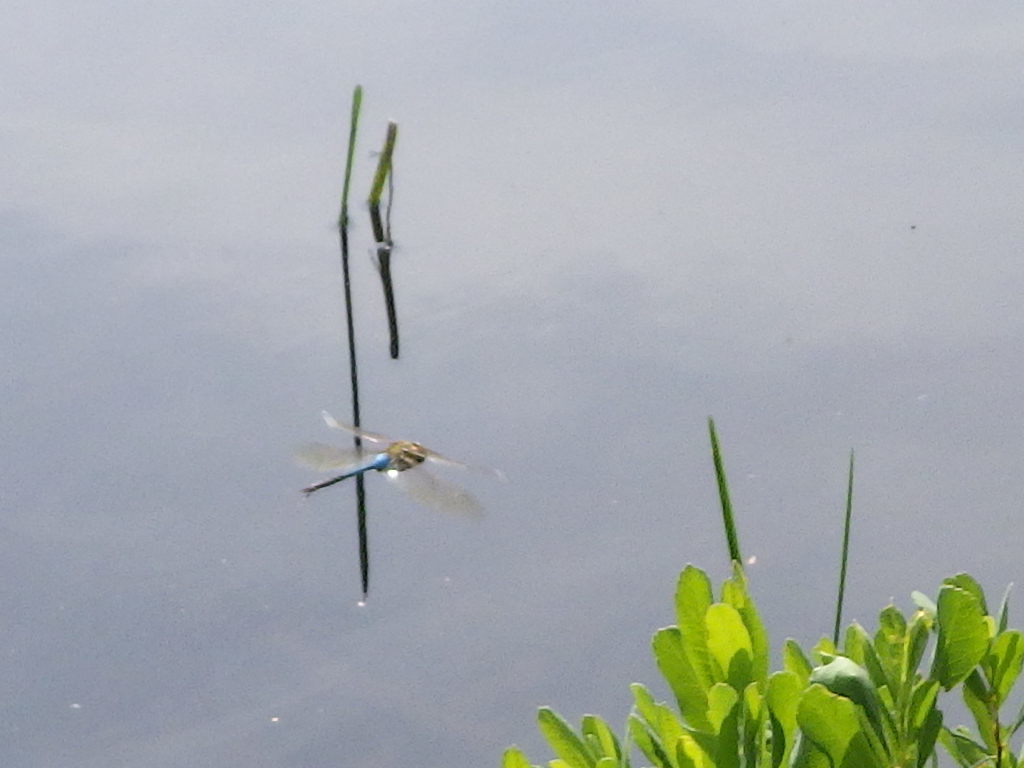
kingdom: Animalia
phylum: Arthropoda
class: Insecta
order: Odonata
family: Aeshnidae
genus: Anax
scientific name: Anax junius
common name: Common green darner
